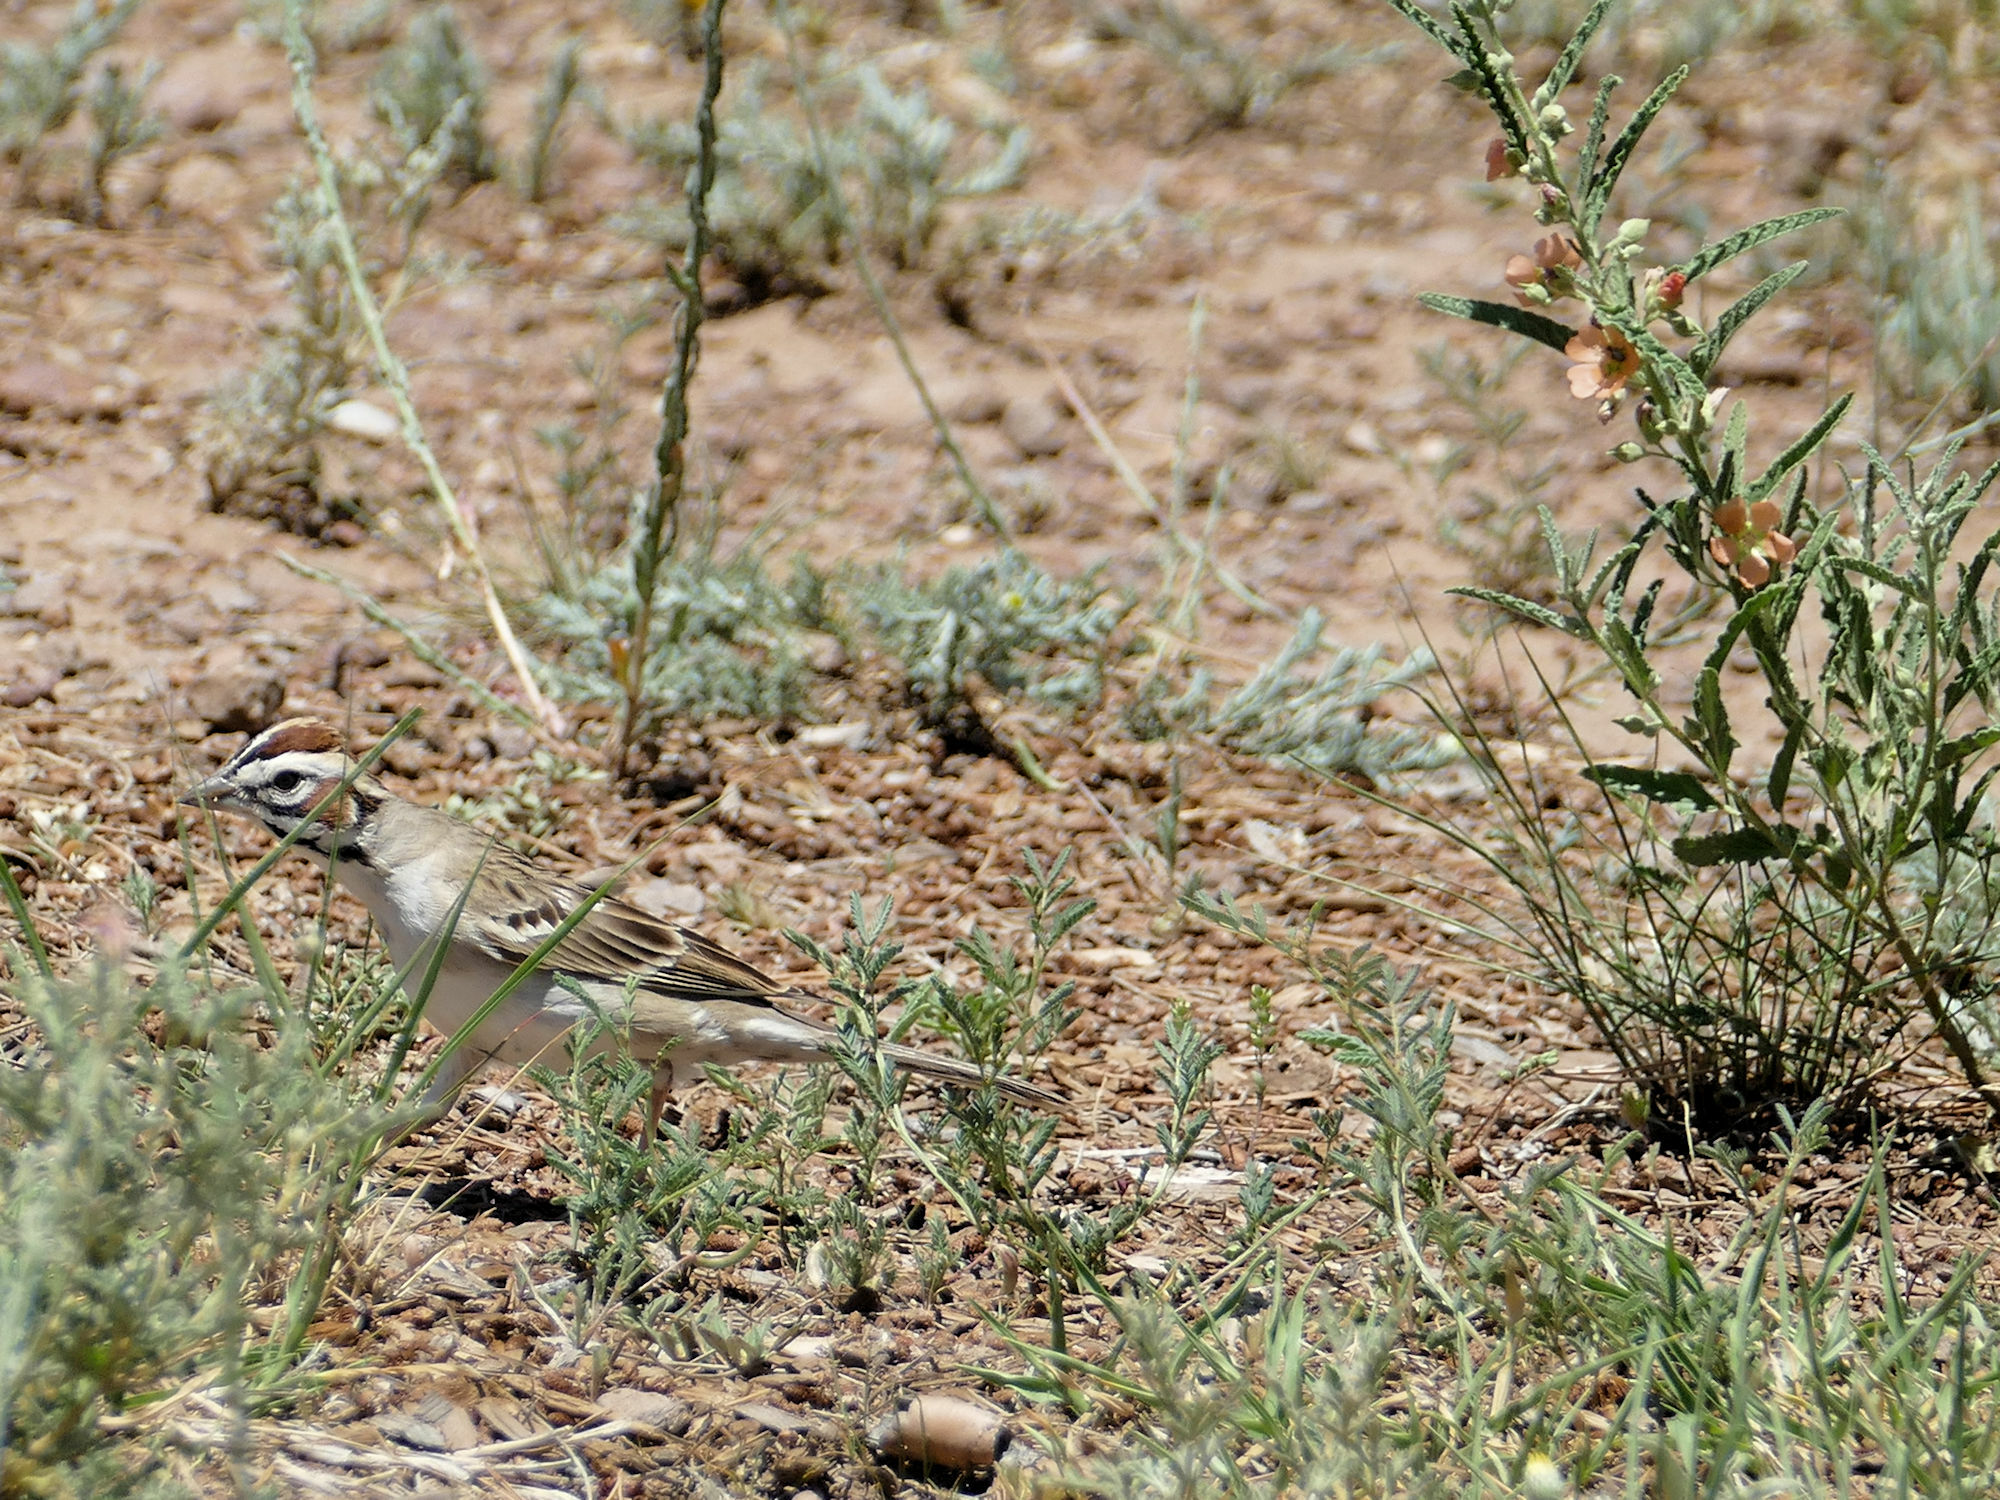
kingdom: Animalia
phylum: Chordata
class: Aves
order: Passeriformes
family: Passerellidae
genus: Chondestes
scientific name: Chondestes grammacus
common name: Lark sparrow
